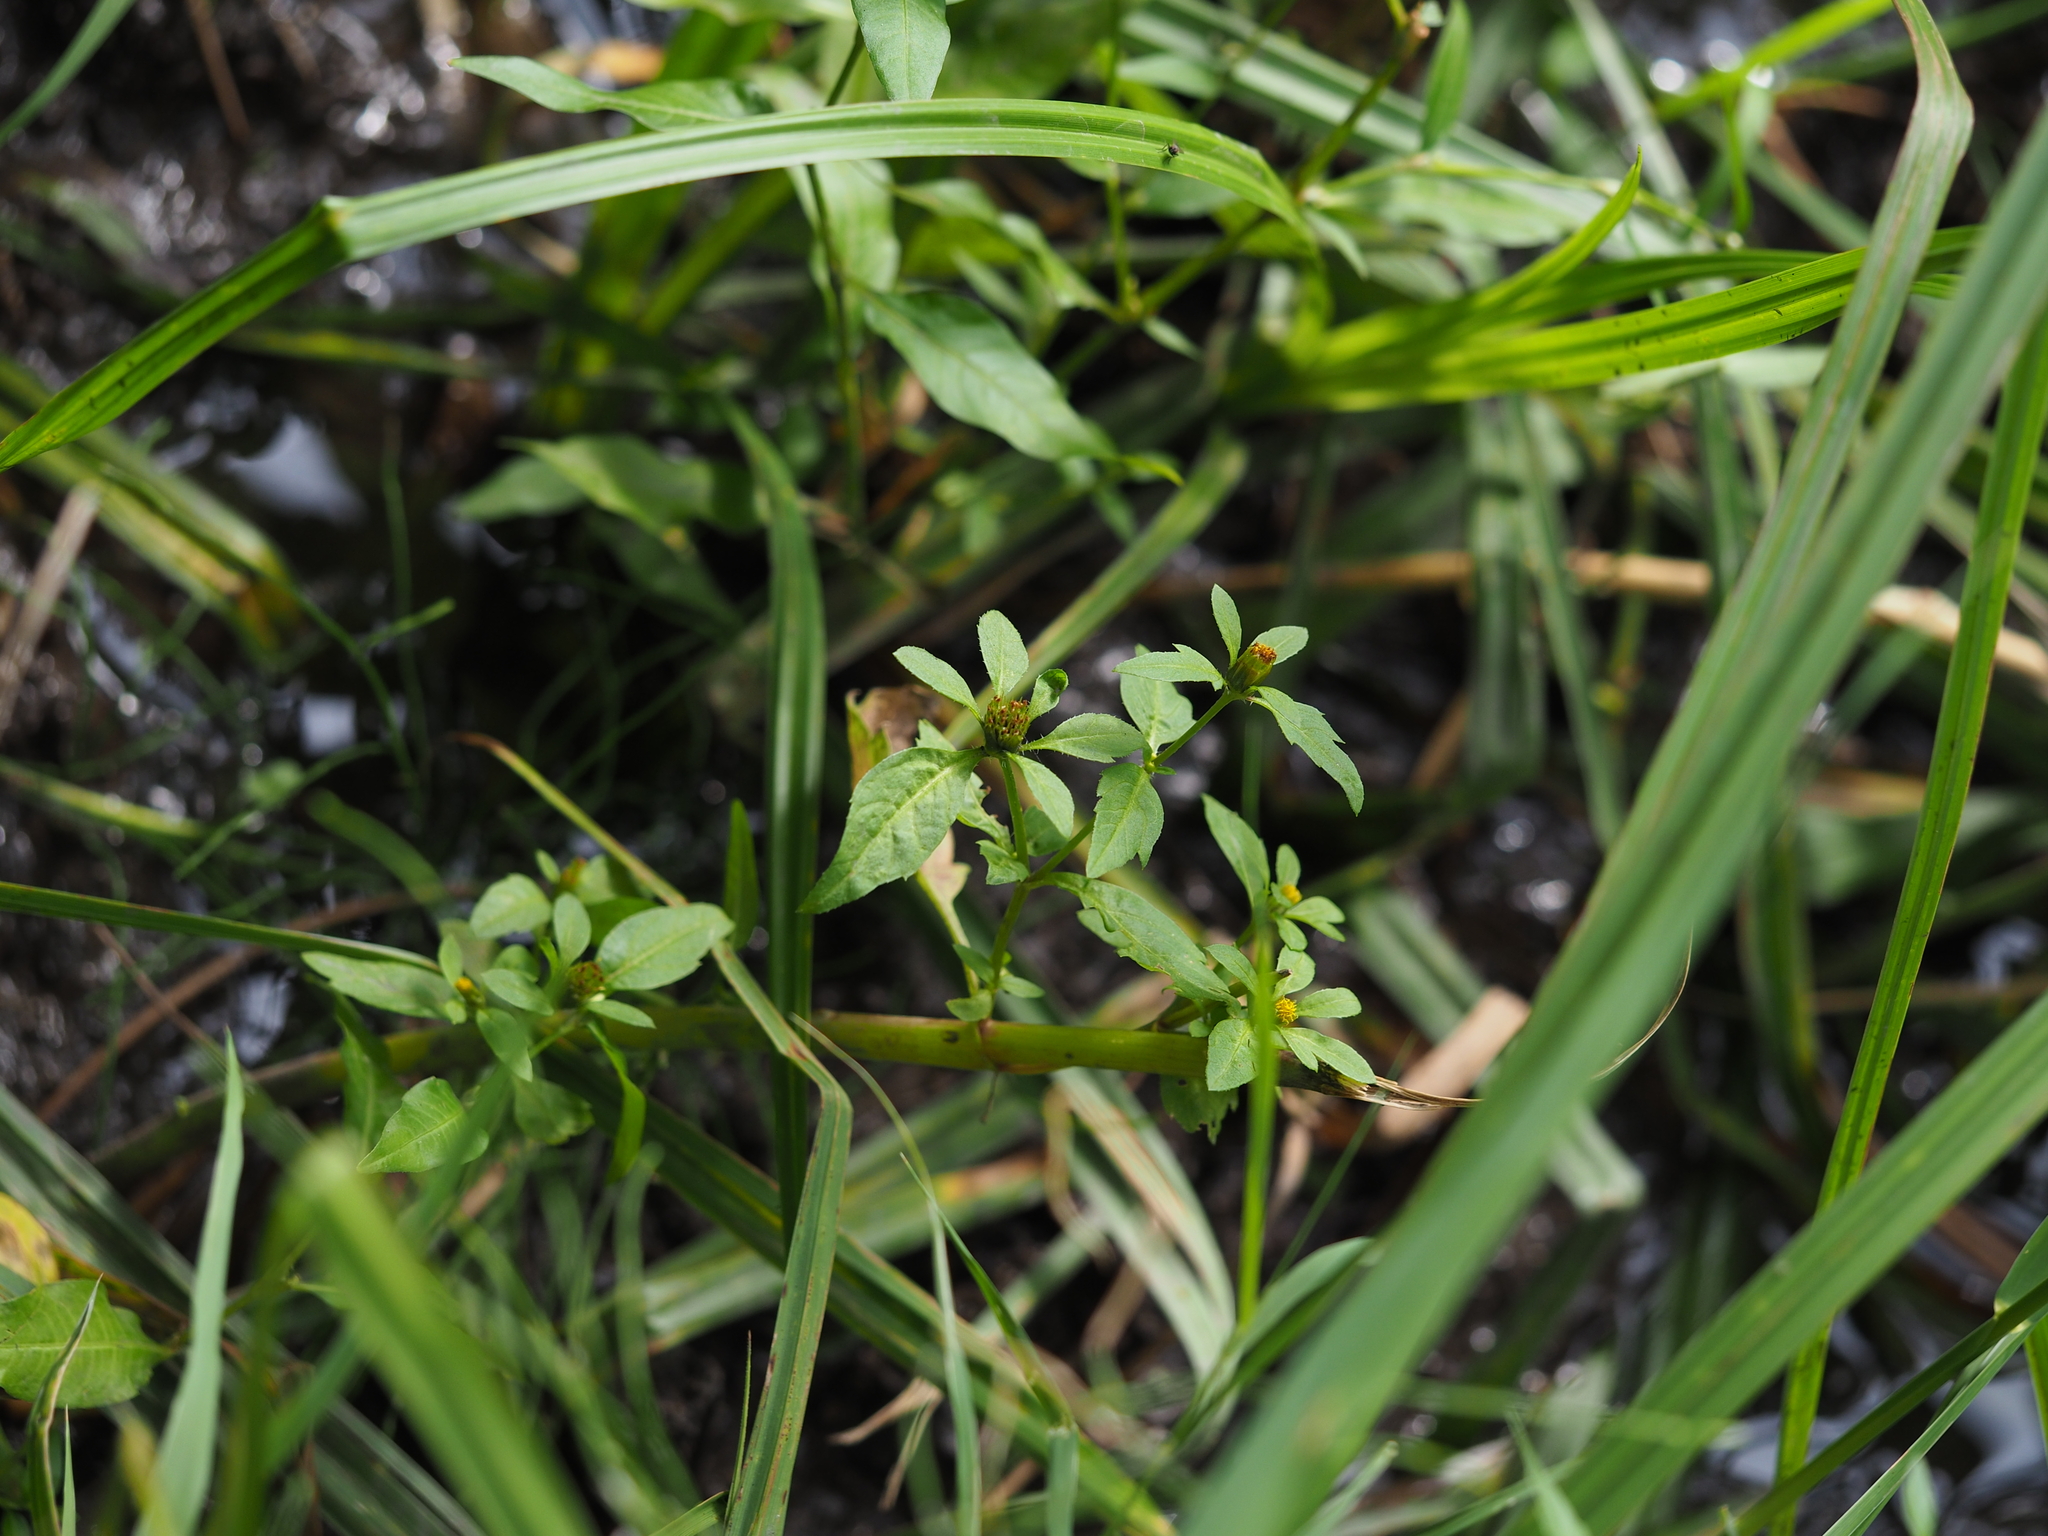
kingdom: Plantae
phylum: Tracheophyta
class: Magnoliopsida
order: Asterales
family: Asteraceae
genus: Bidens
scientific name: Bidens tripartita
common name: Trifid bur-marigold
